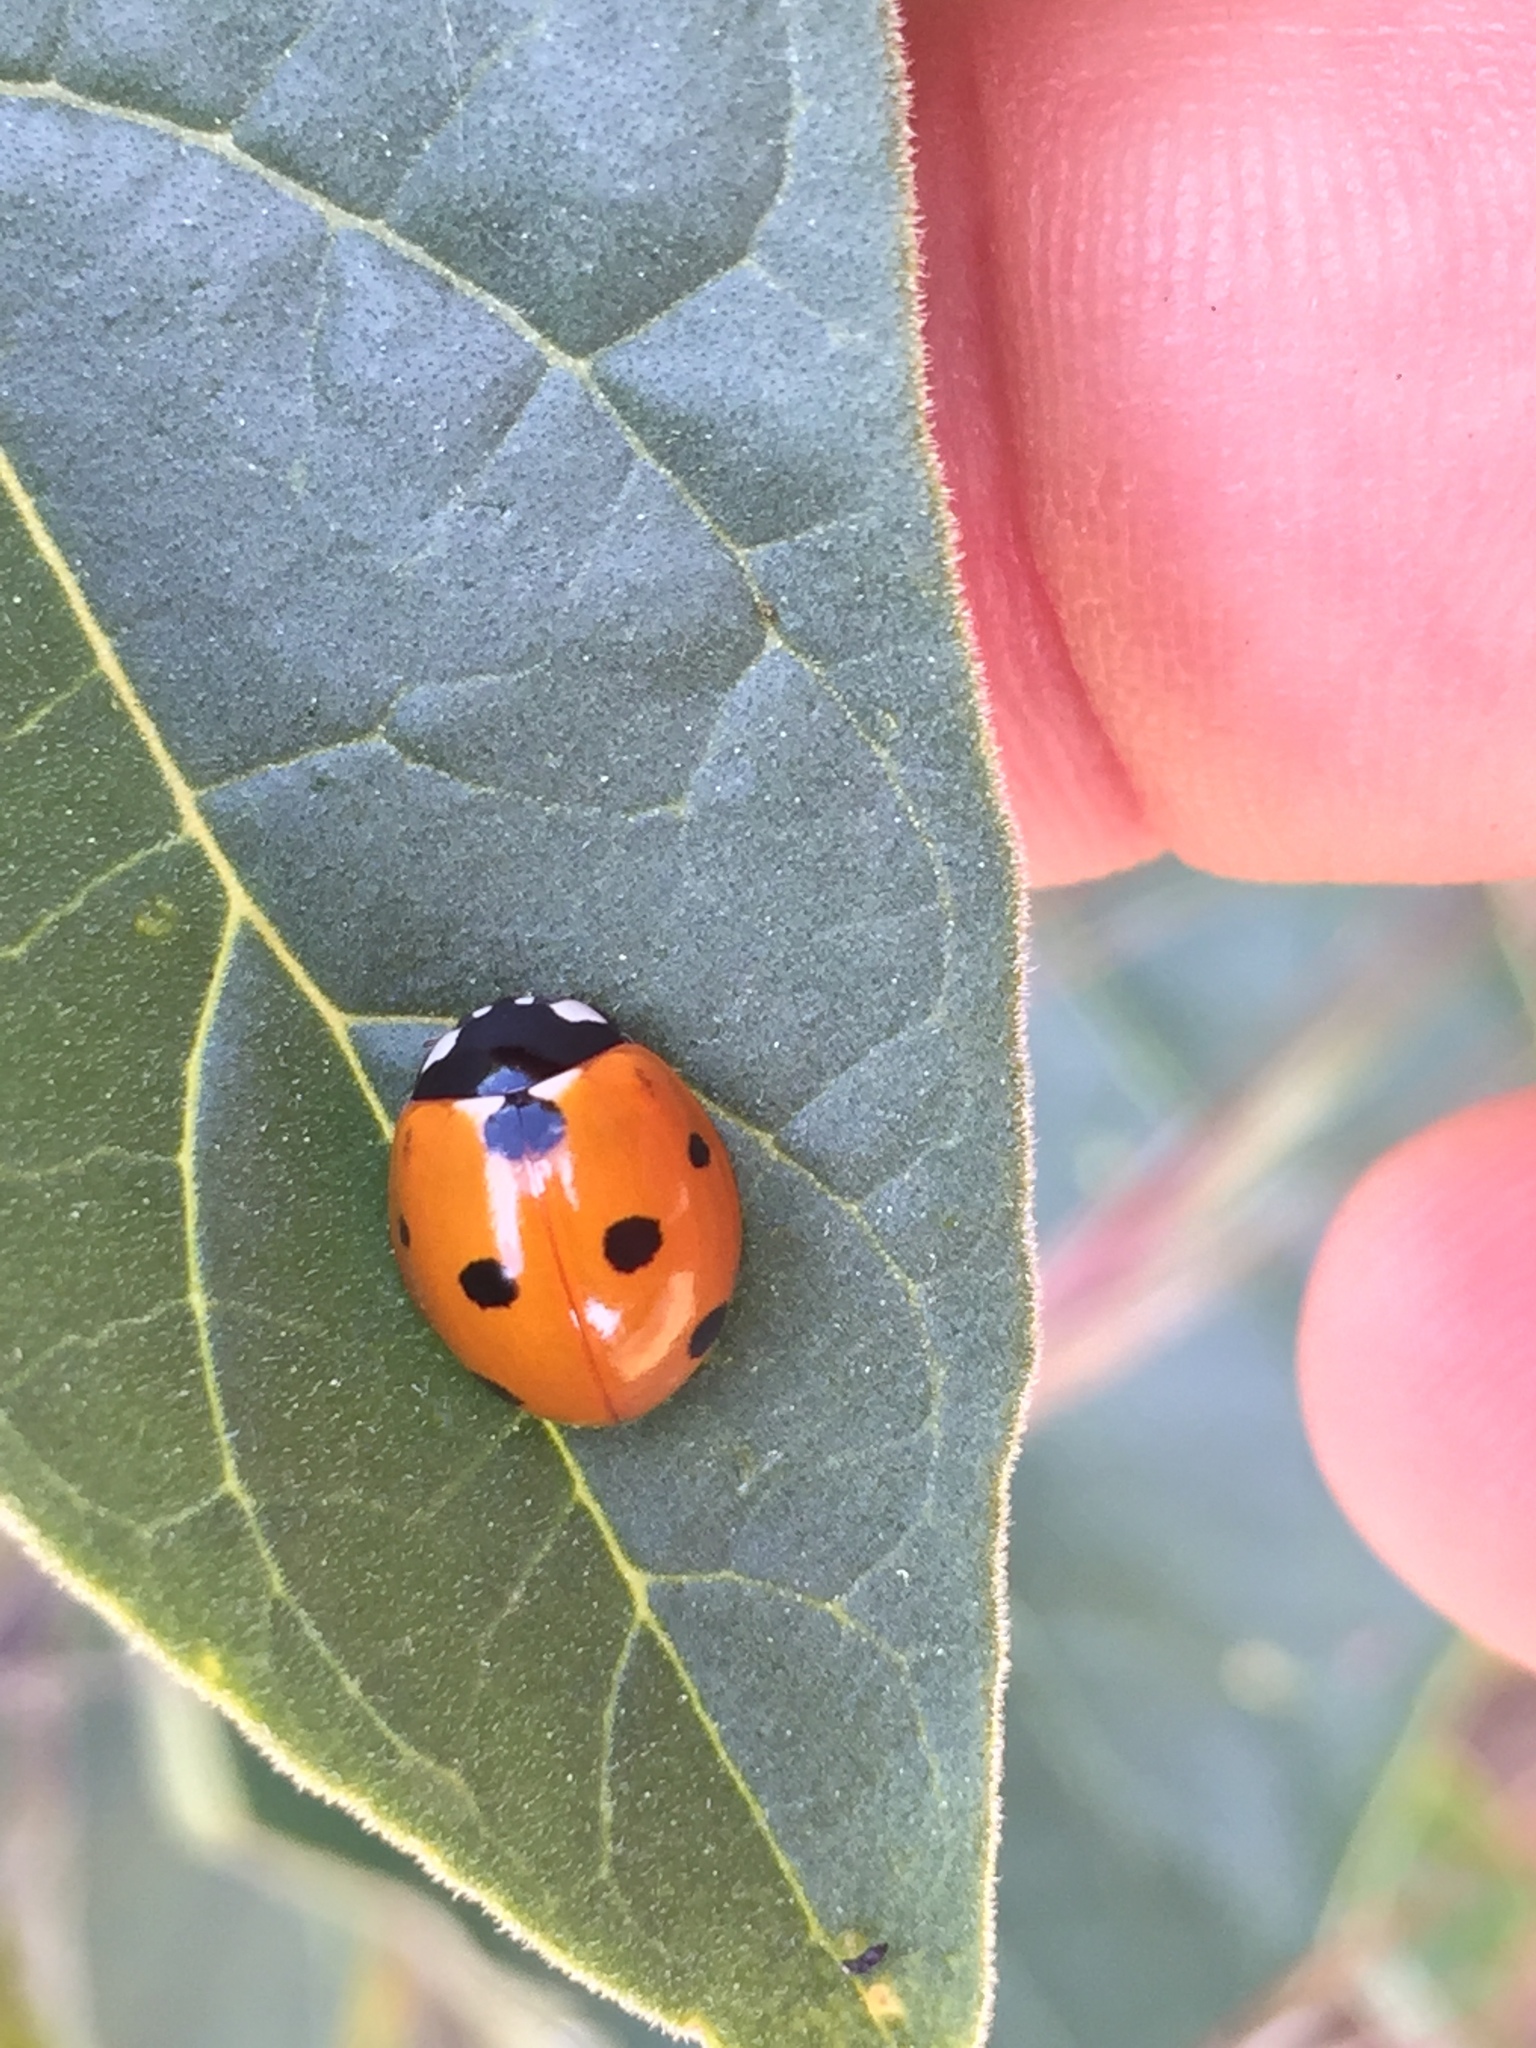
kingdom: Animalia
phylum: Arthropoda
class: Insecta
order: Coleoptera
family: Coccinellidae
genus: Coccinella
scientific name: Coccinella septempunctata
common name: Sevenspotted lady beetle
